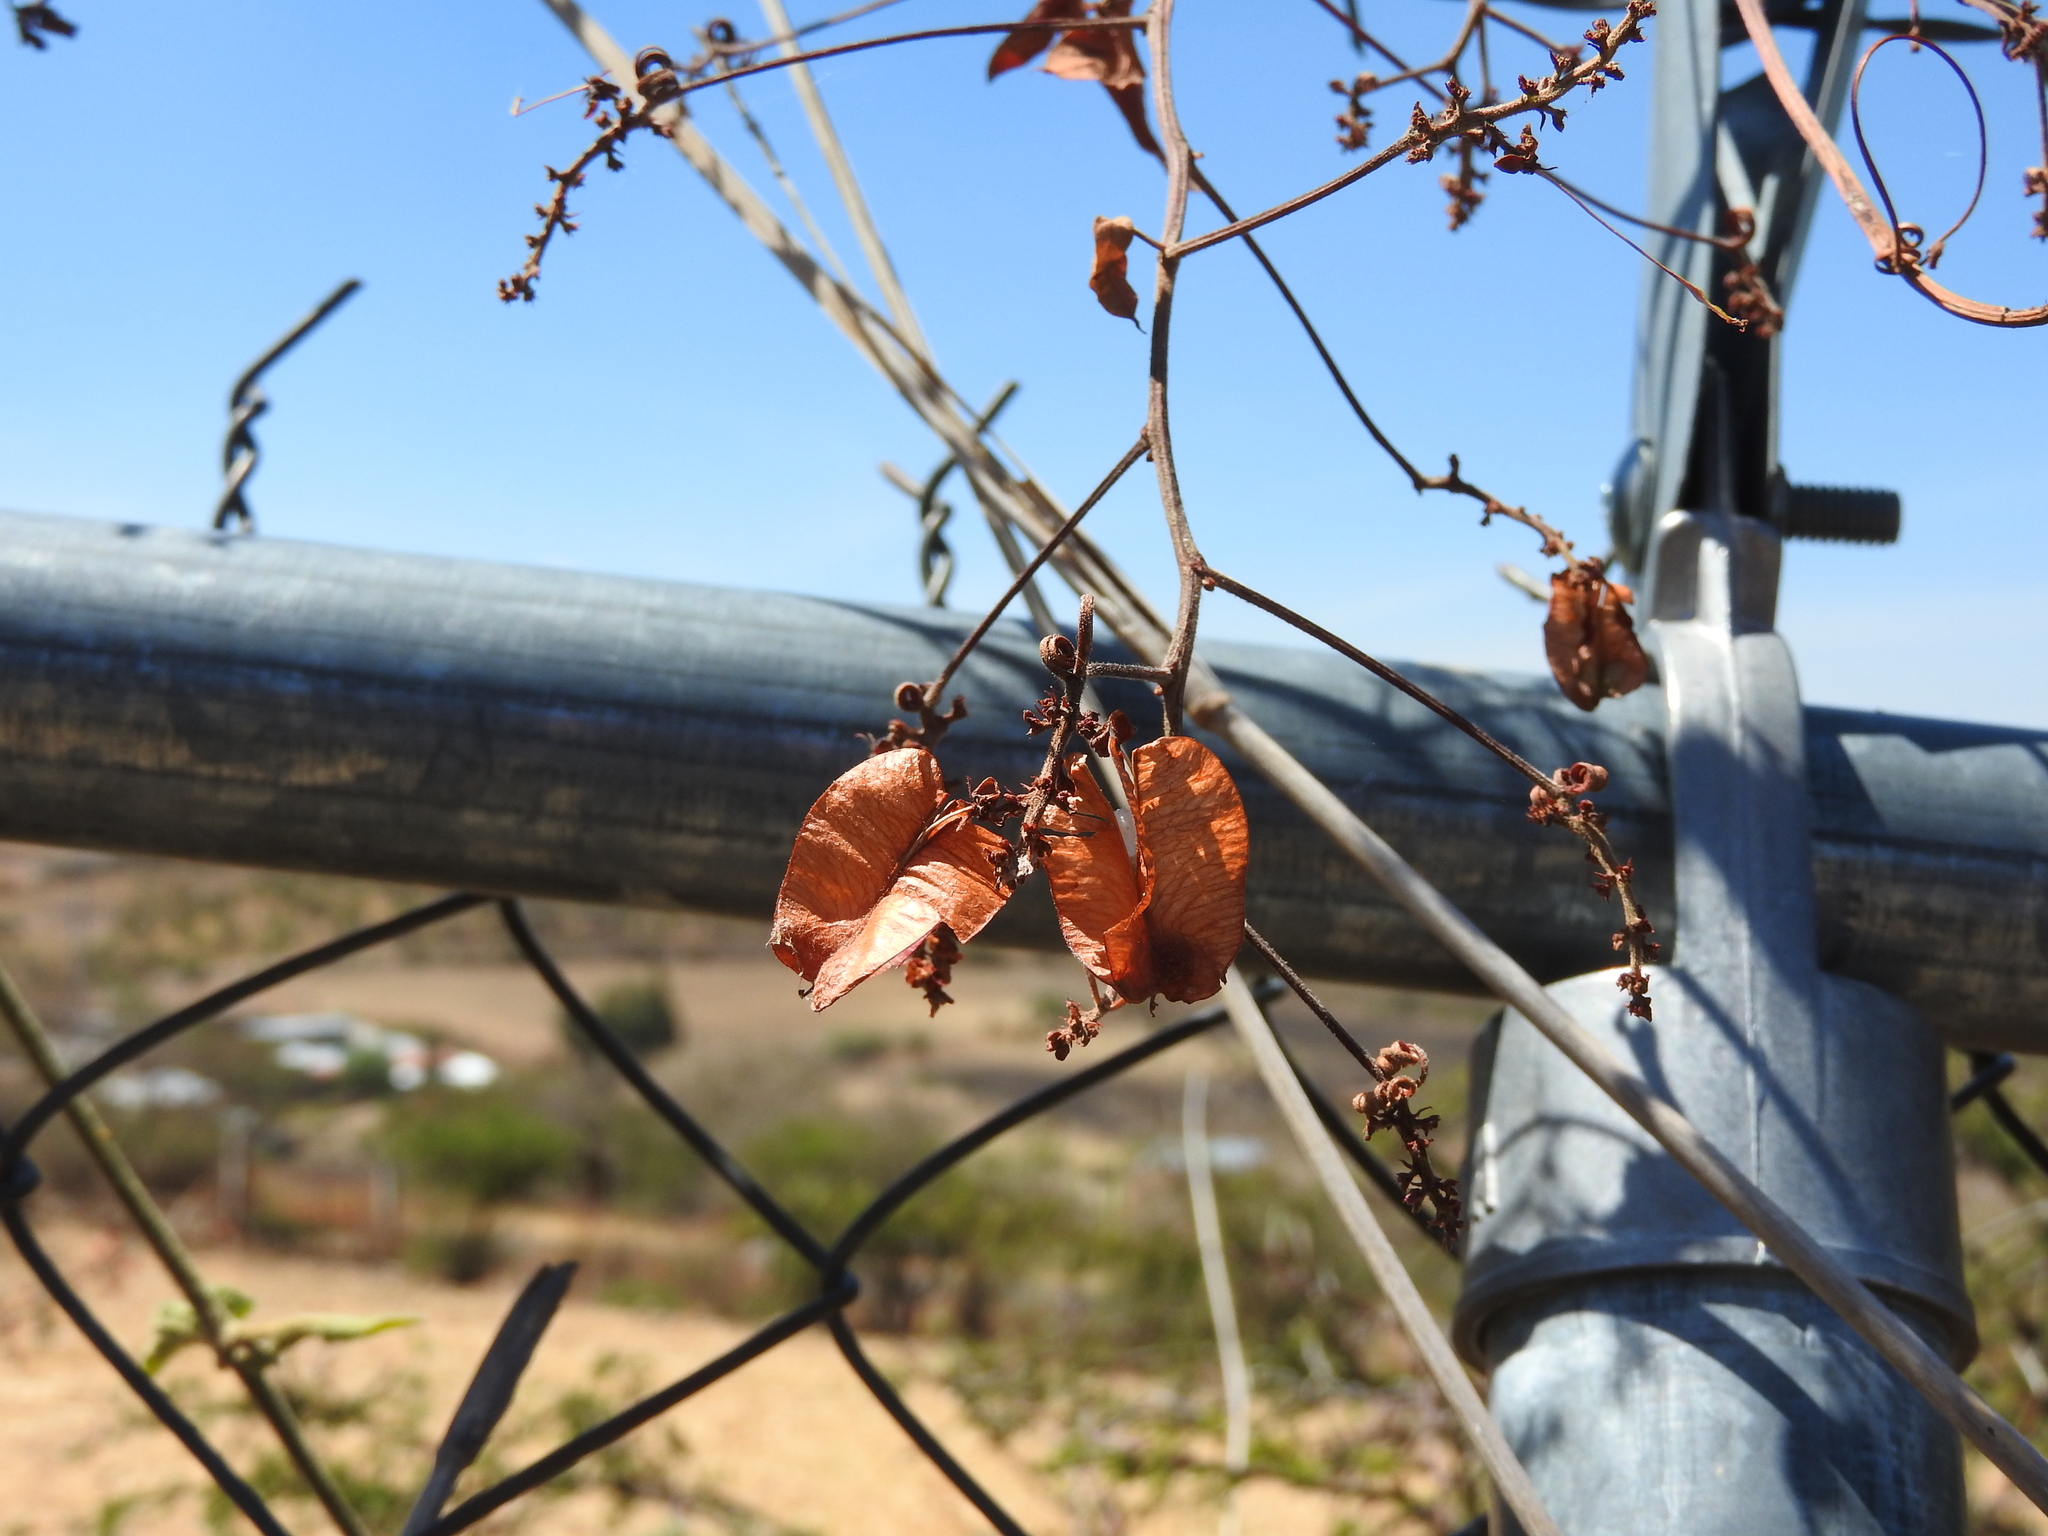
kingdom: Plantae
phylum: Tracheophyta
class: Magnoliopsida
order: Sapindales
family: Sapindaceae
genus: Cardiospermum
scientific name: Cardiospermum halicacabum
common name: Balloon vine
